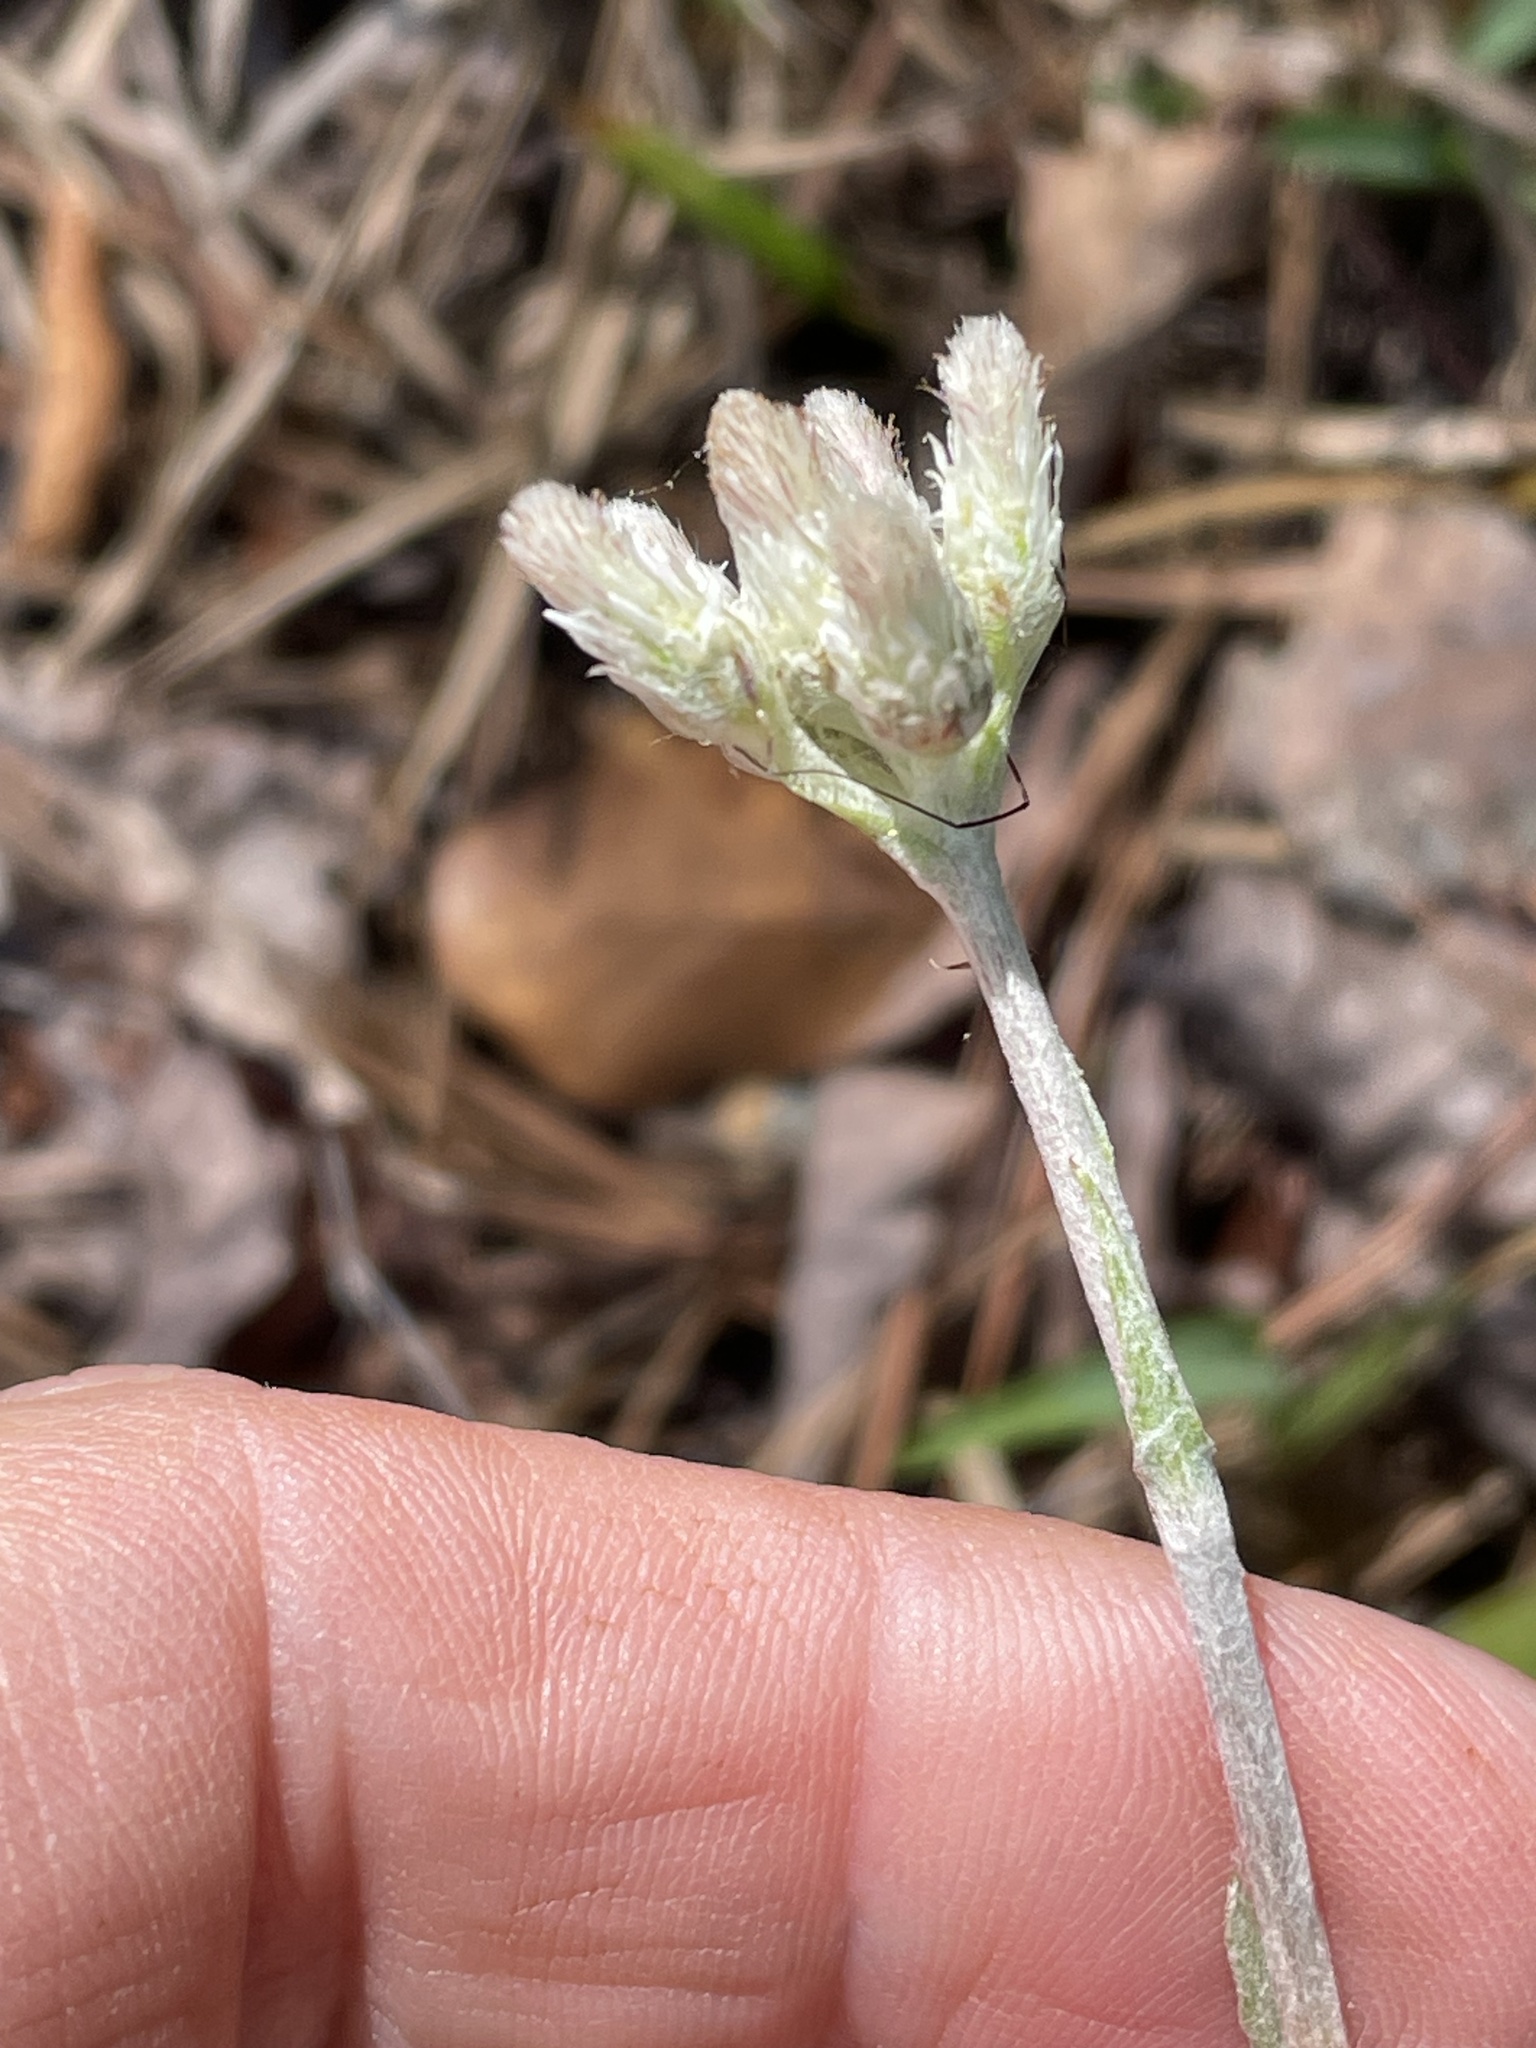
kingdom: Plantae
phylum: Tracheophyta
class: Magnoliopsida
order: Asterales
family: Asteraceae
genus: Antennaria
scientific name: Antennaria parlinii
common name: Parlin's pussytoes
